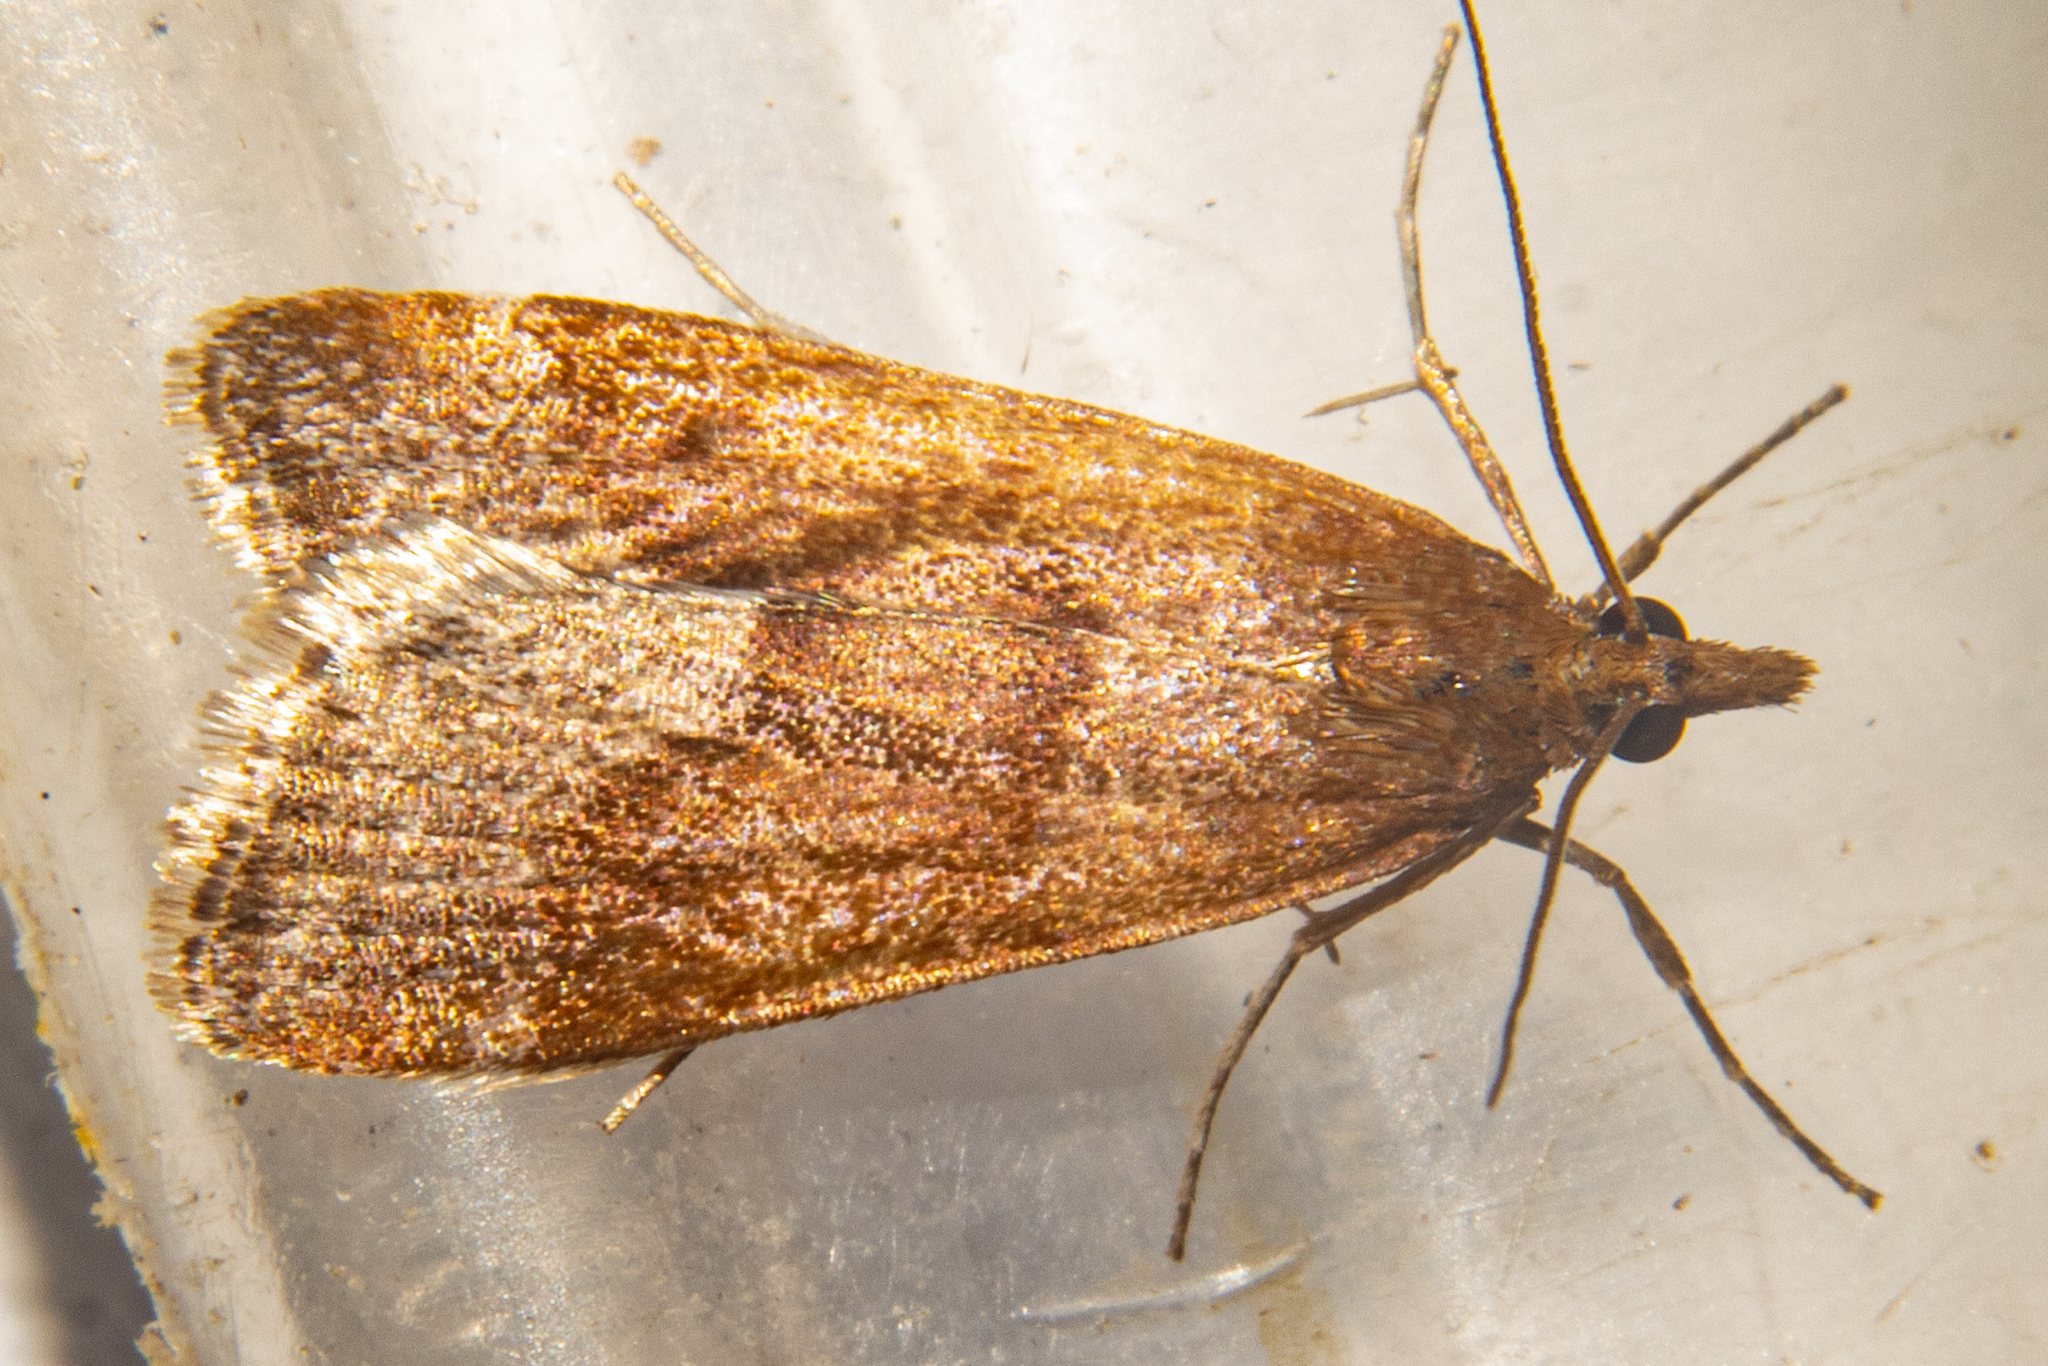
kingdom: Animalia
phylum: Arthropoda
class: Insecta
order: Lepidoptera
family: Crambidae
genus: Eudonia
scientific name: Eudonia feredayi
